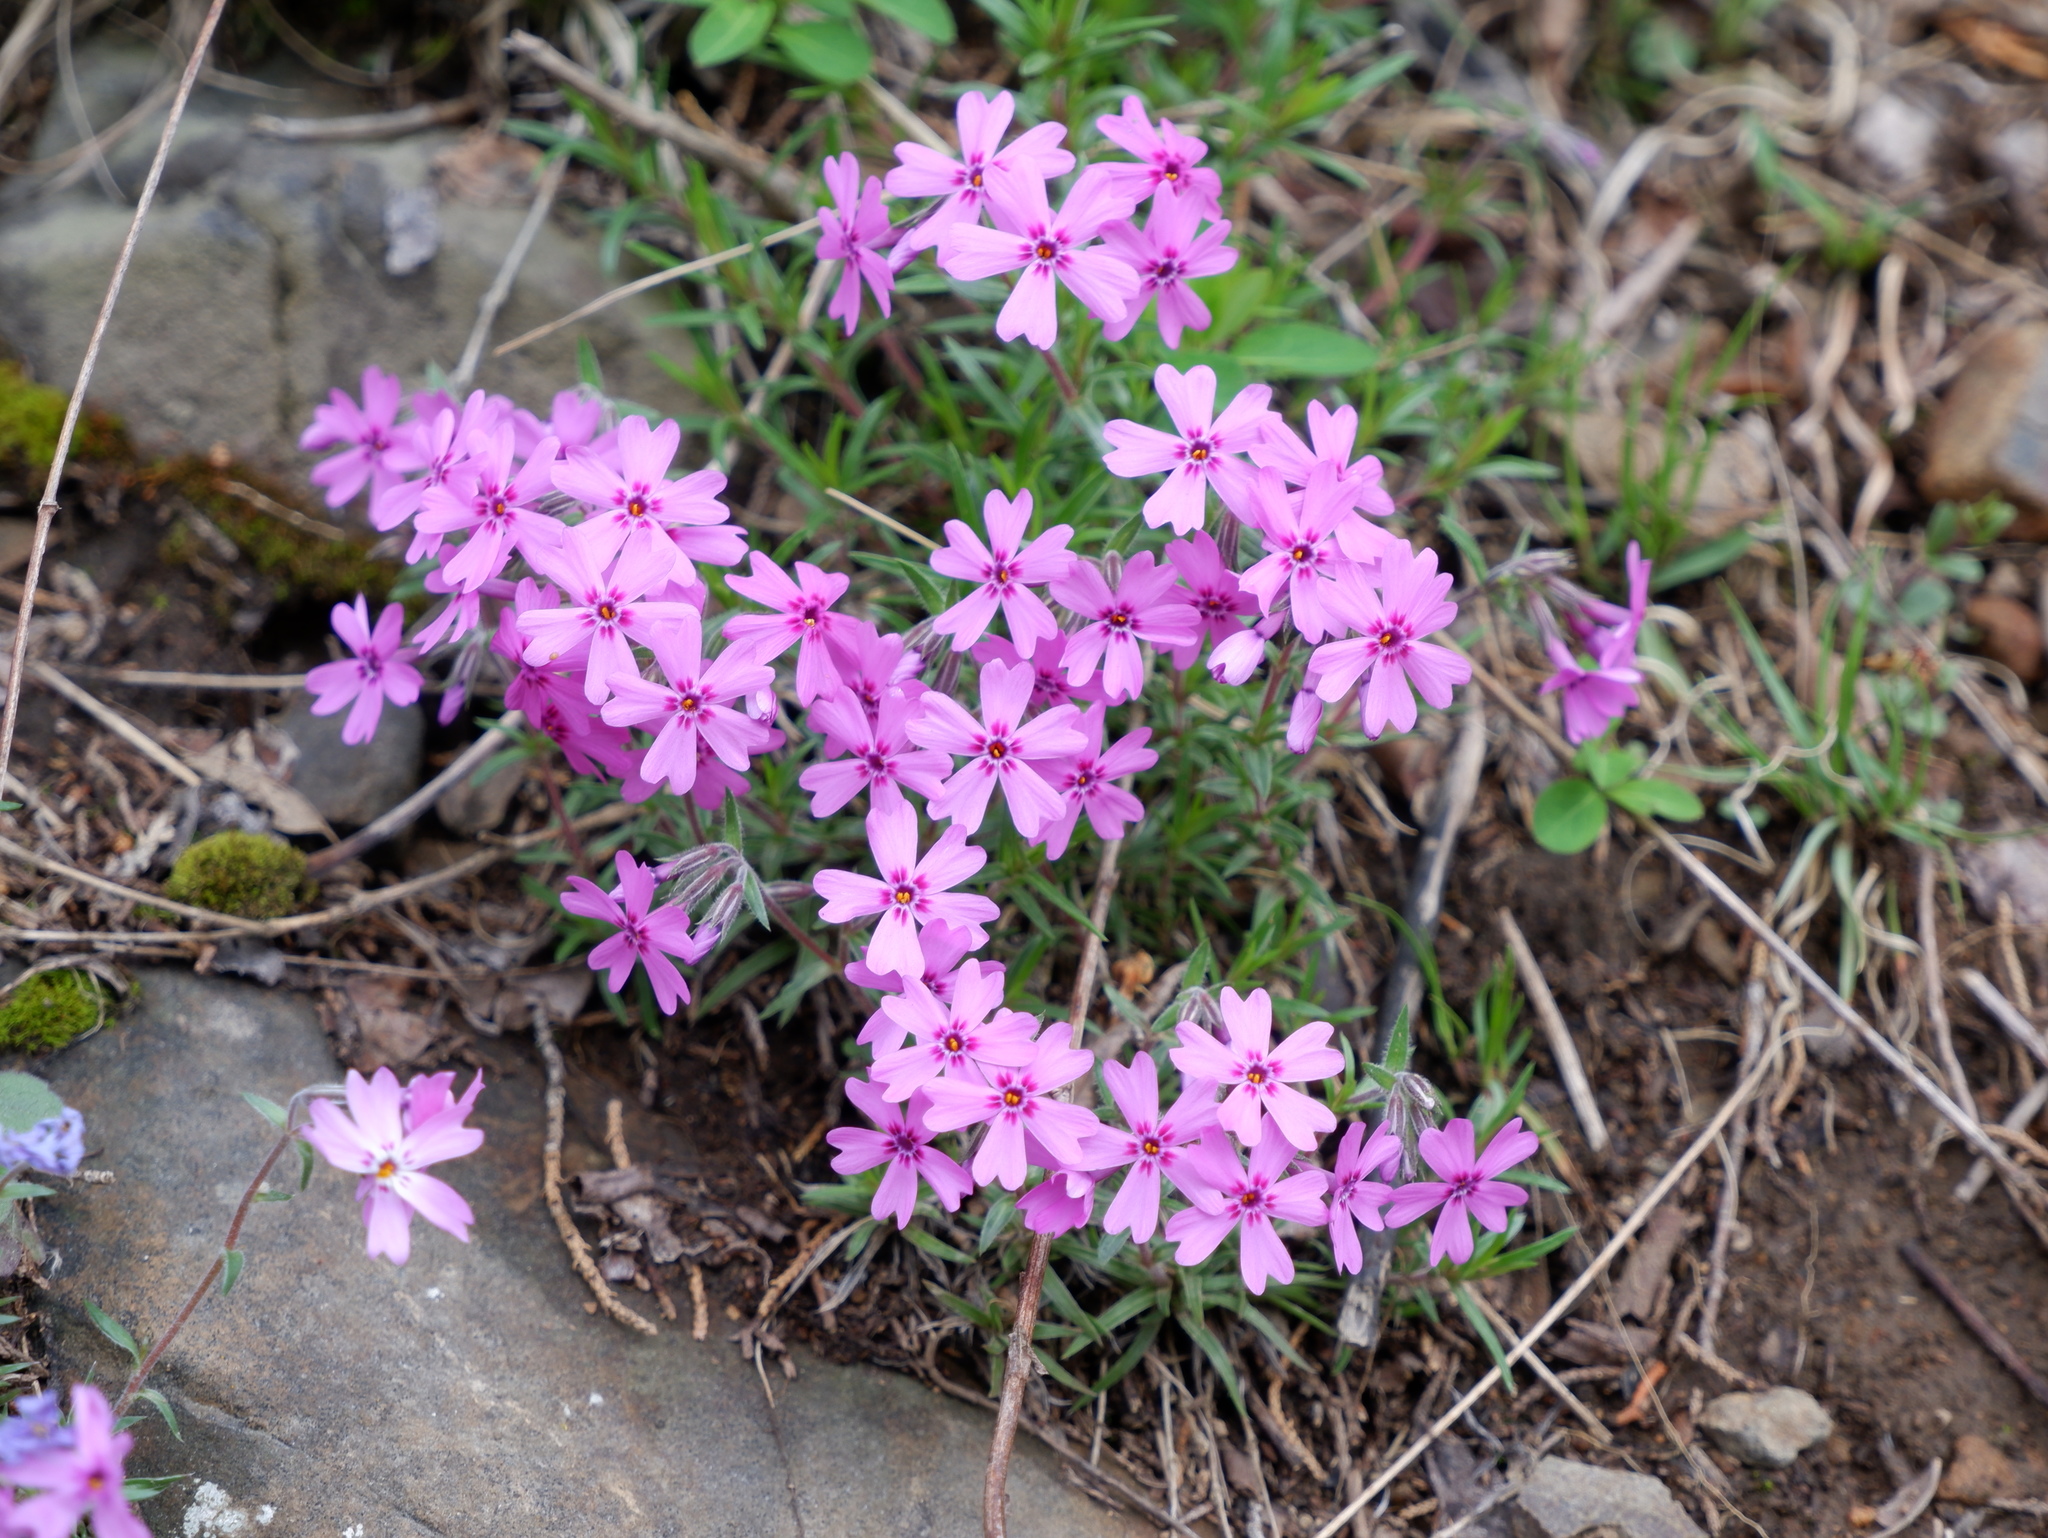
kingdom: Plantae
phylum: Tracheophyta
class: Magnoliopsida
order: Ericales
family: Polemoniaceae
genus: Phlox
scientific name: Phlox subulata
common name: Moss phlox
